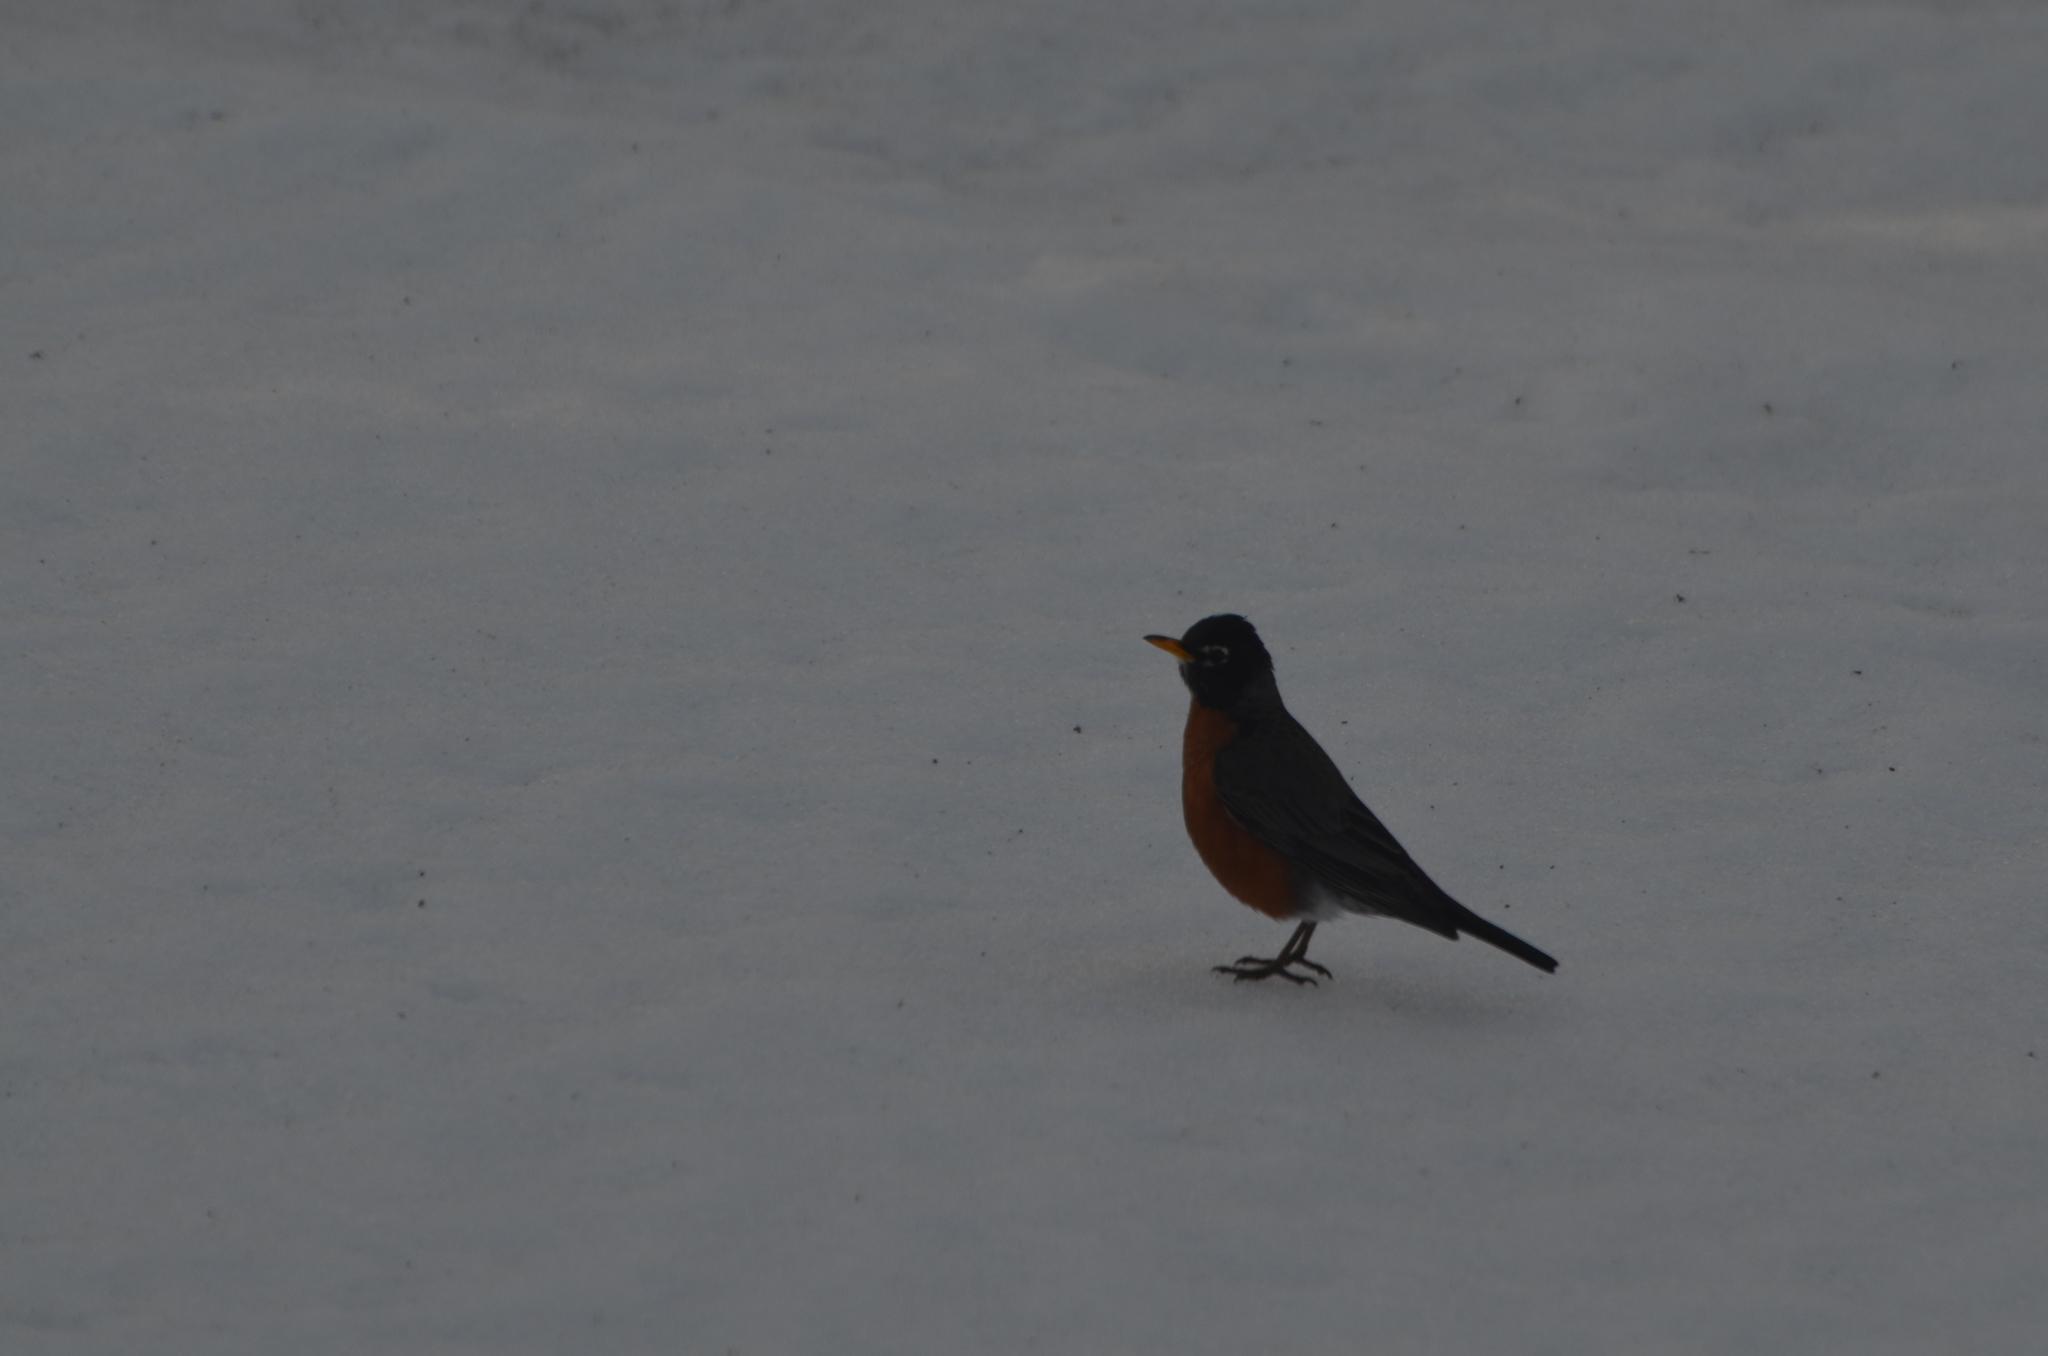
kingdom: Animalia
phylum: Chordata
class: Aves
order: Passeriformes
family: Turdidae
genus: Turdus
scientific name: Turdus migratorius
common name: American robin
